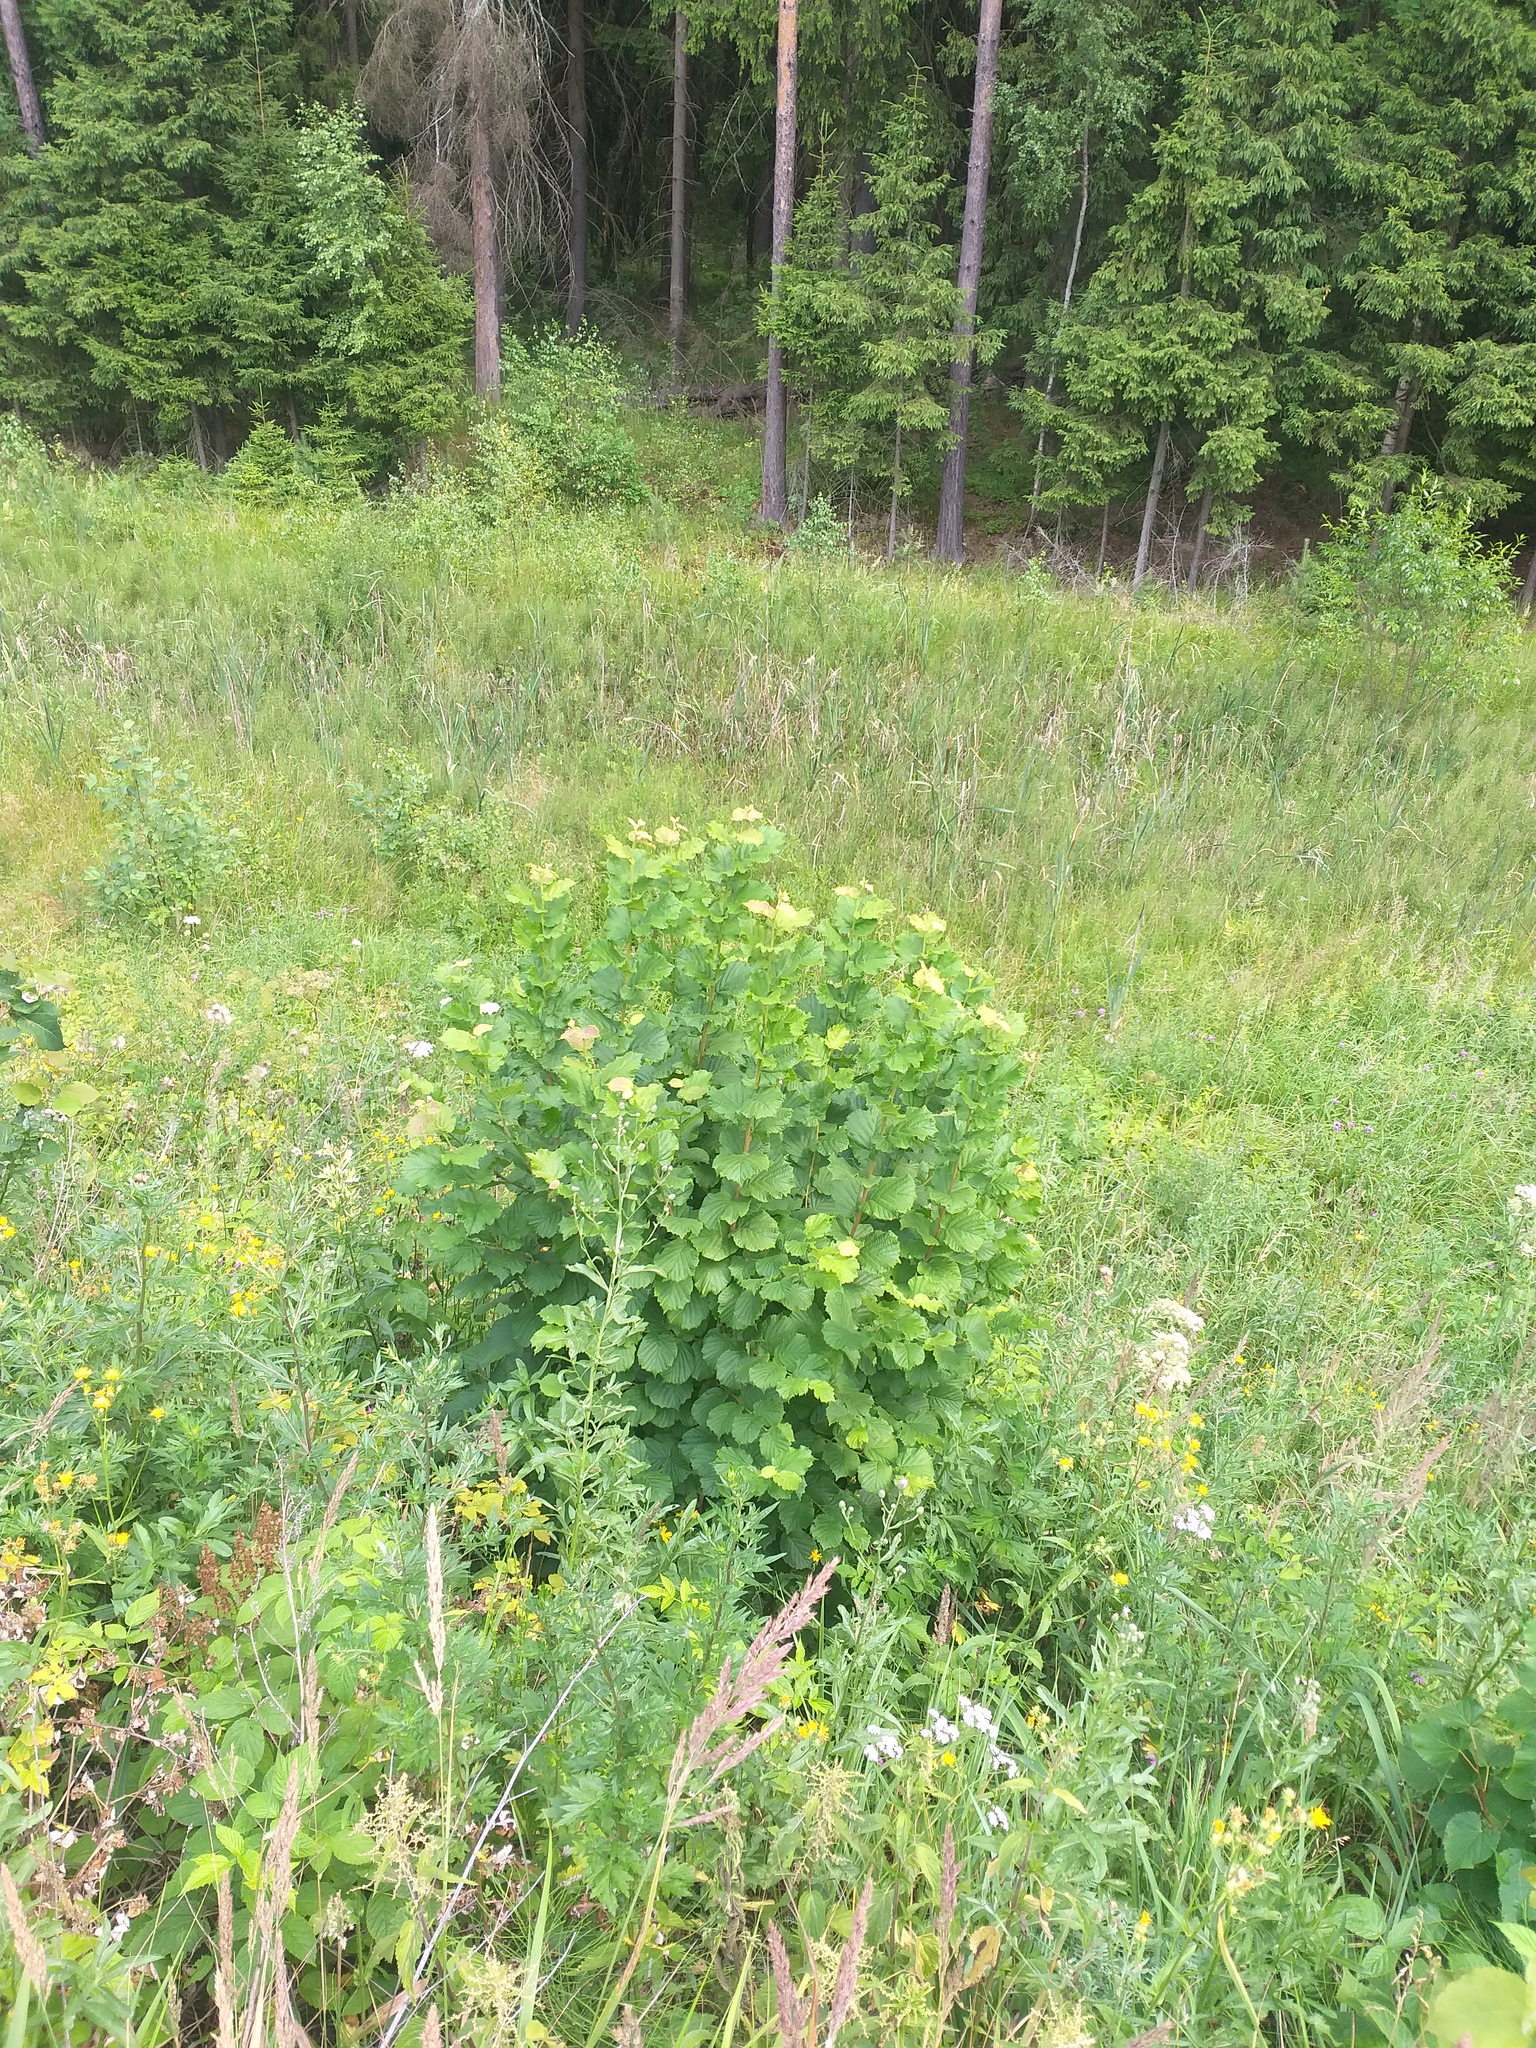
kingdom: Plantae
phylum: Tracheophyta
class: Magnoliopsida
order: Fagales
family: Betulaceae
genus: Corylus
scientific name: Corylus avellana
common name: European hazel
